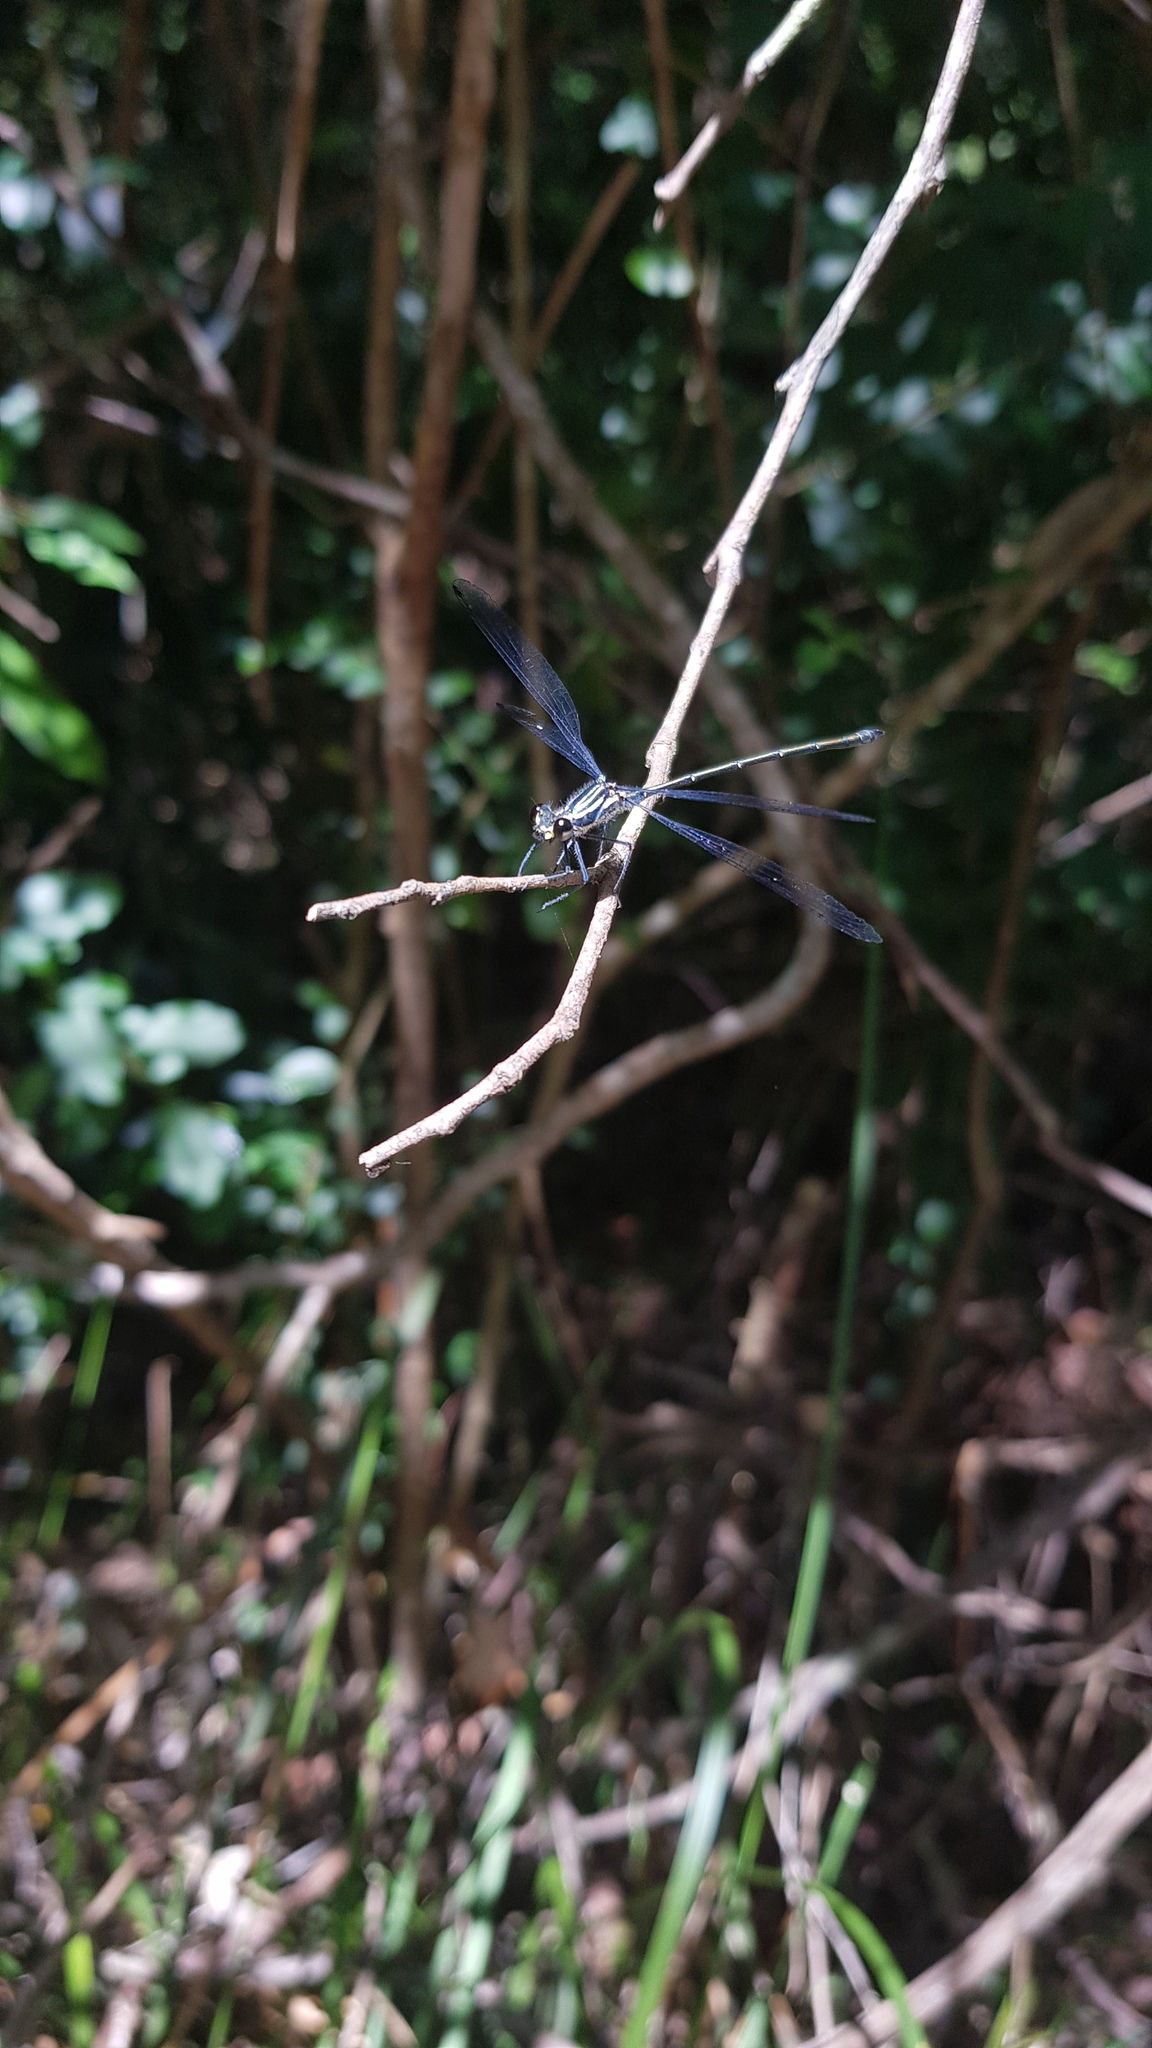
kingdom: Animalia
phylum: Arthropoda
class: Insecta
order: Odonata
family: Argiolestidae
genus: Austroargiolestes
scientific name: Austroargiolestes icteromelas
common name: Common flatwing
